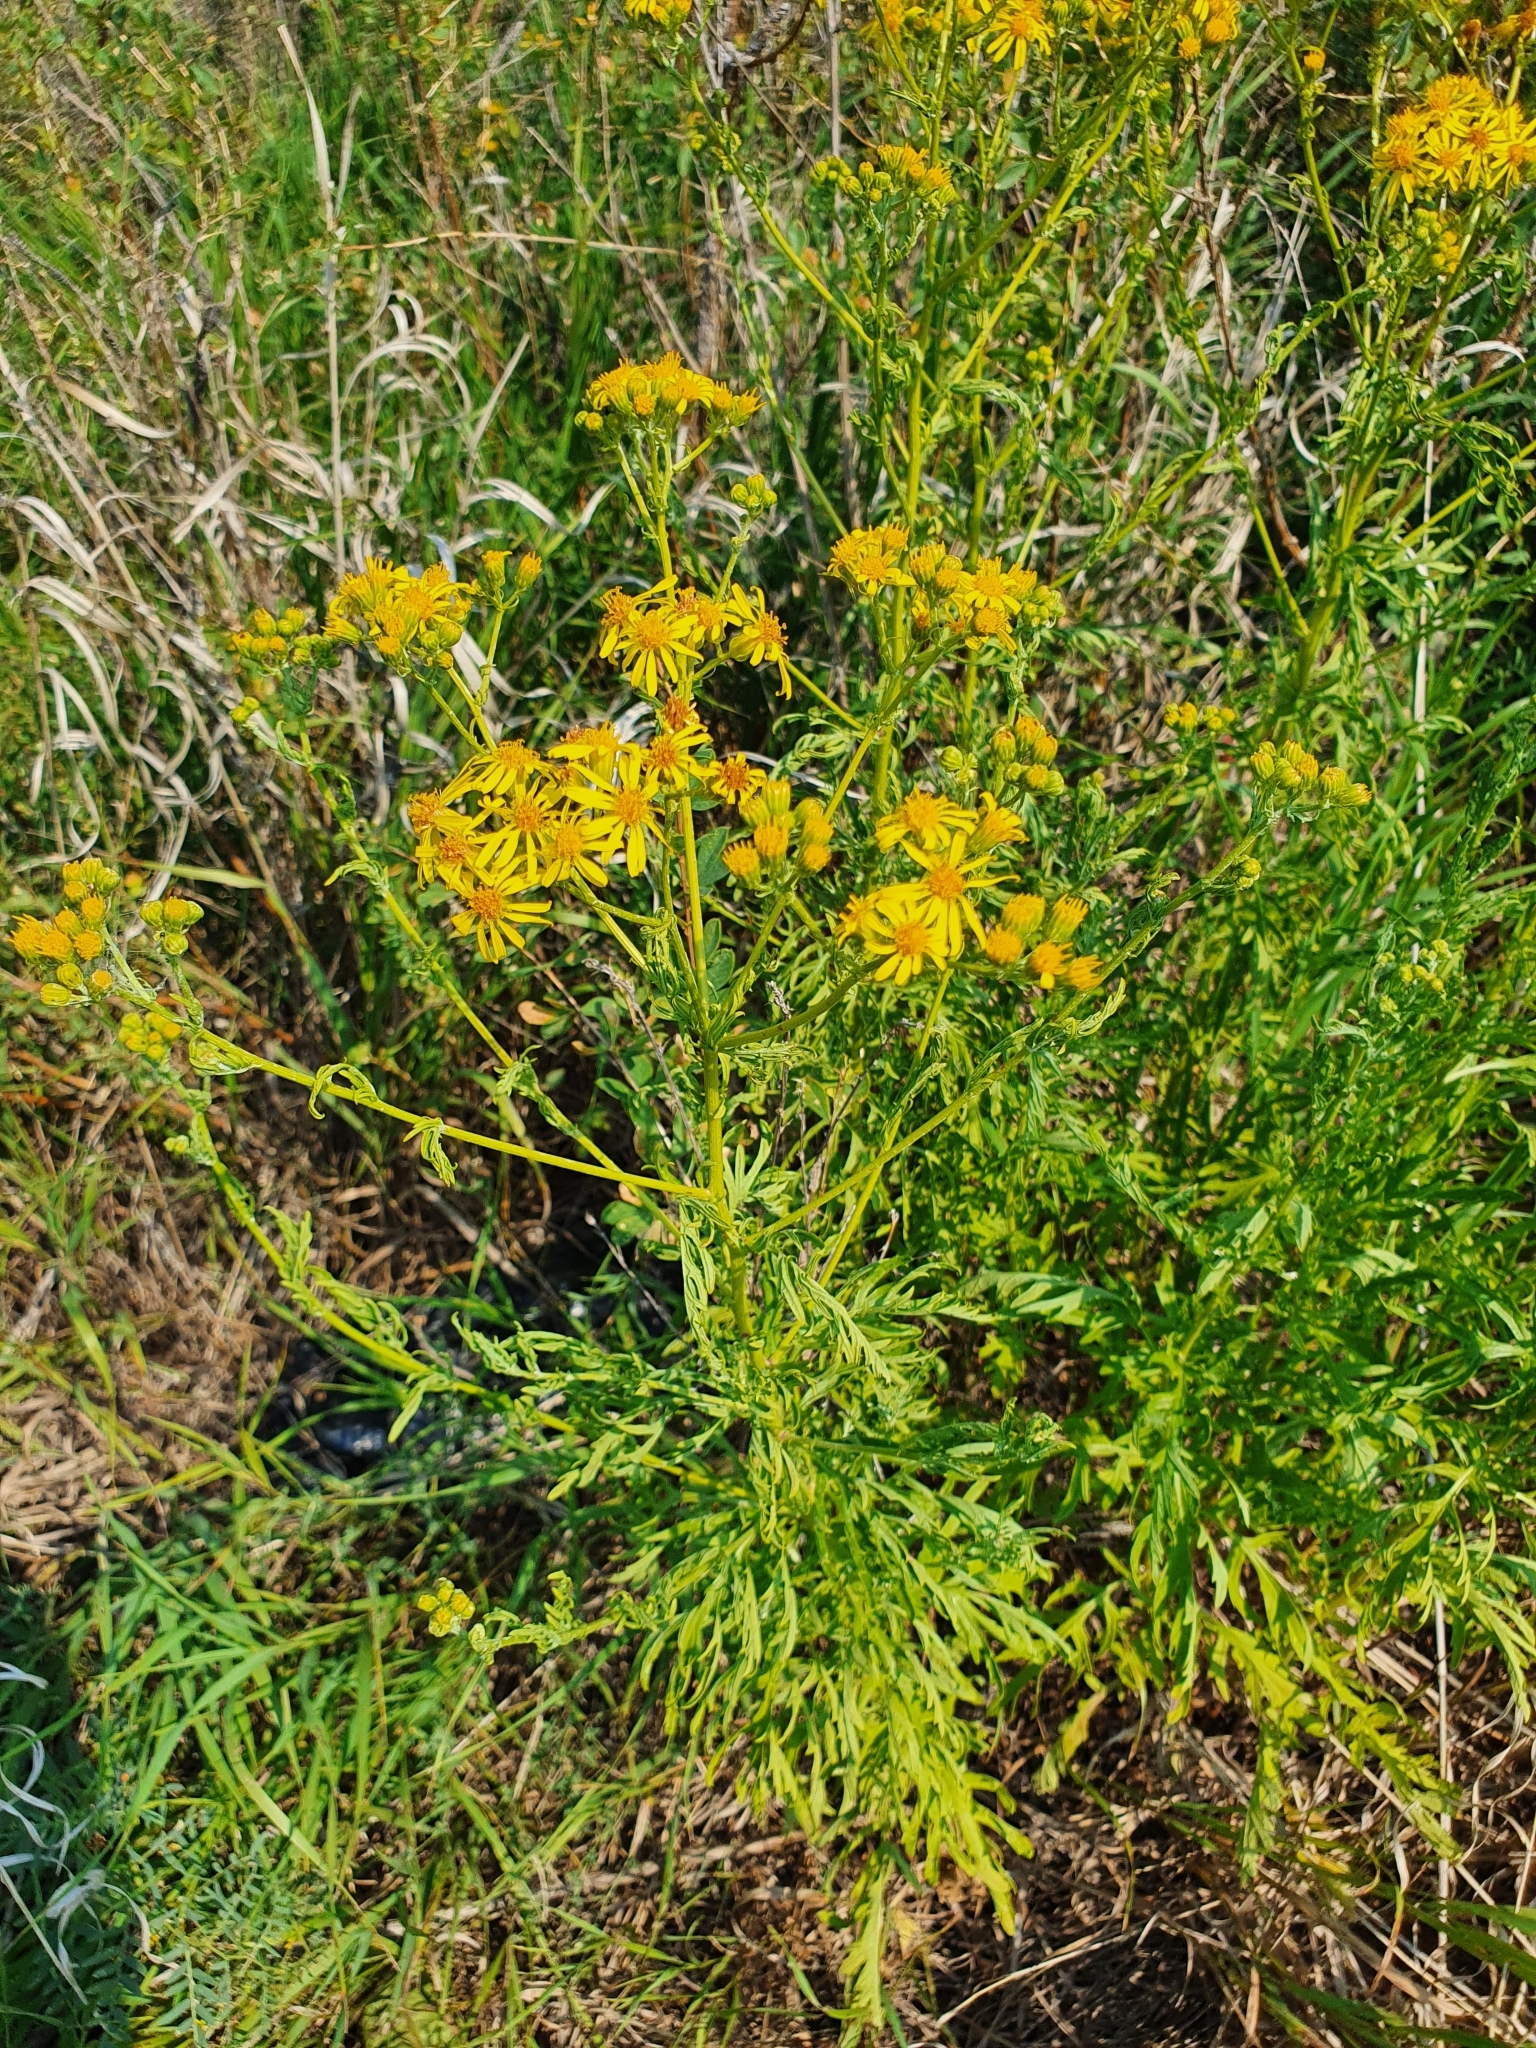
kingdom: Plantae
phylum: Tracheophyta
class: Magnoliopsida
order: Asterales
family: Asteraceae
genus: Jacobaea
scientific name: Jacobaea erucifolia
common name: Hoary ragwort
